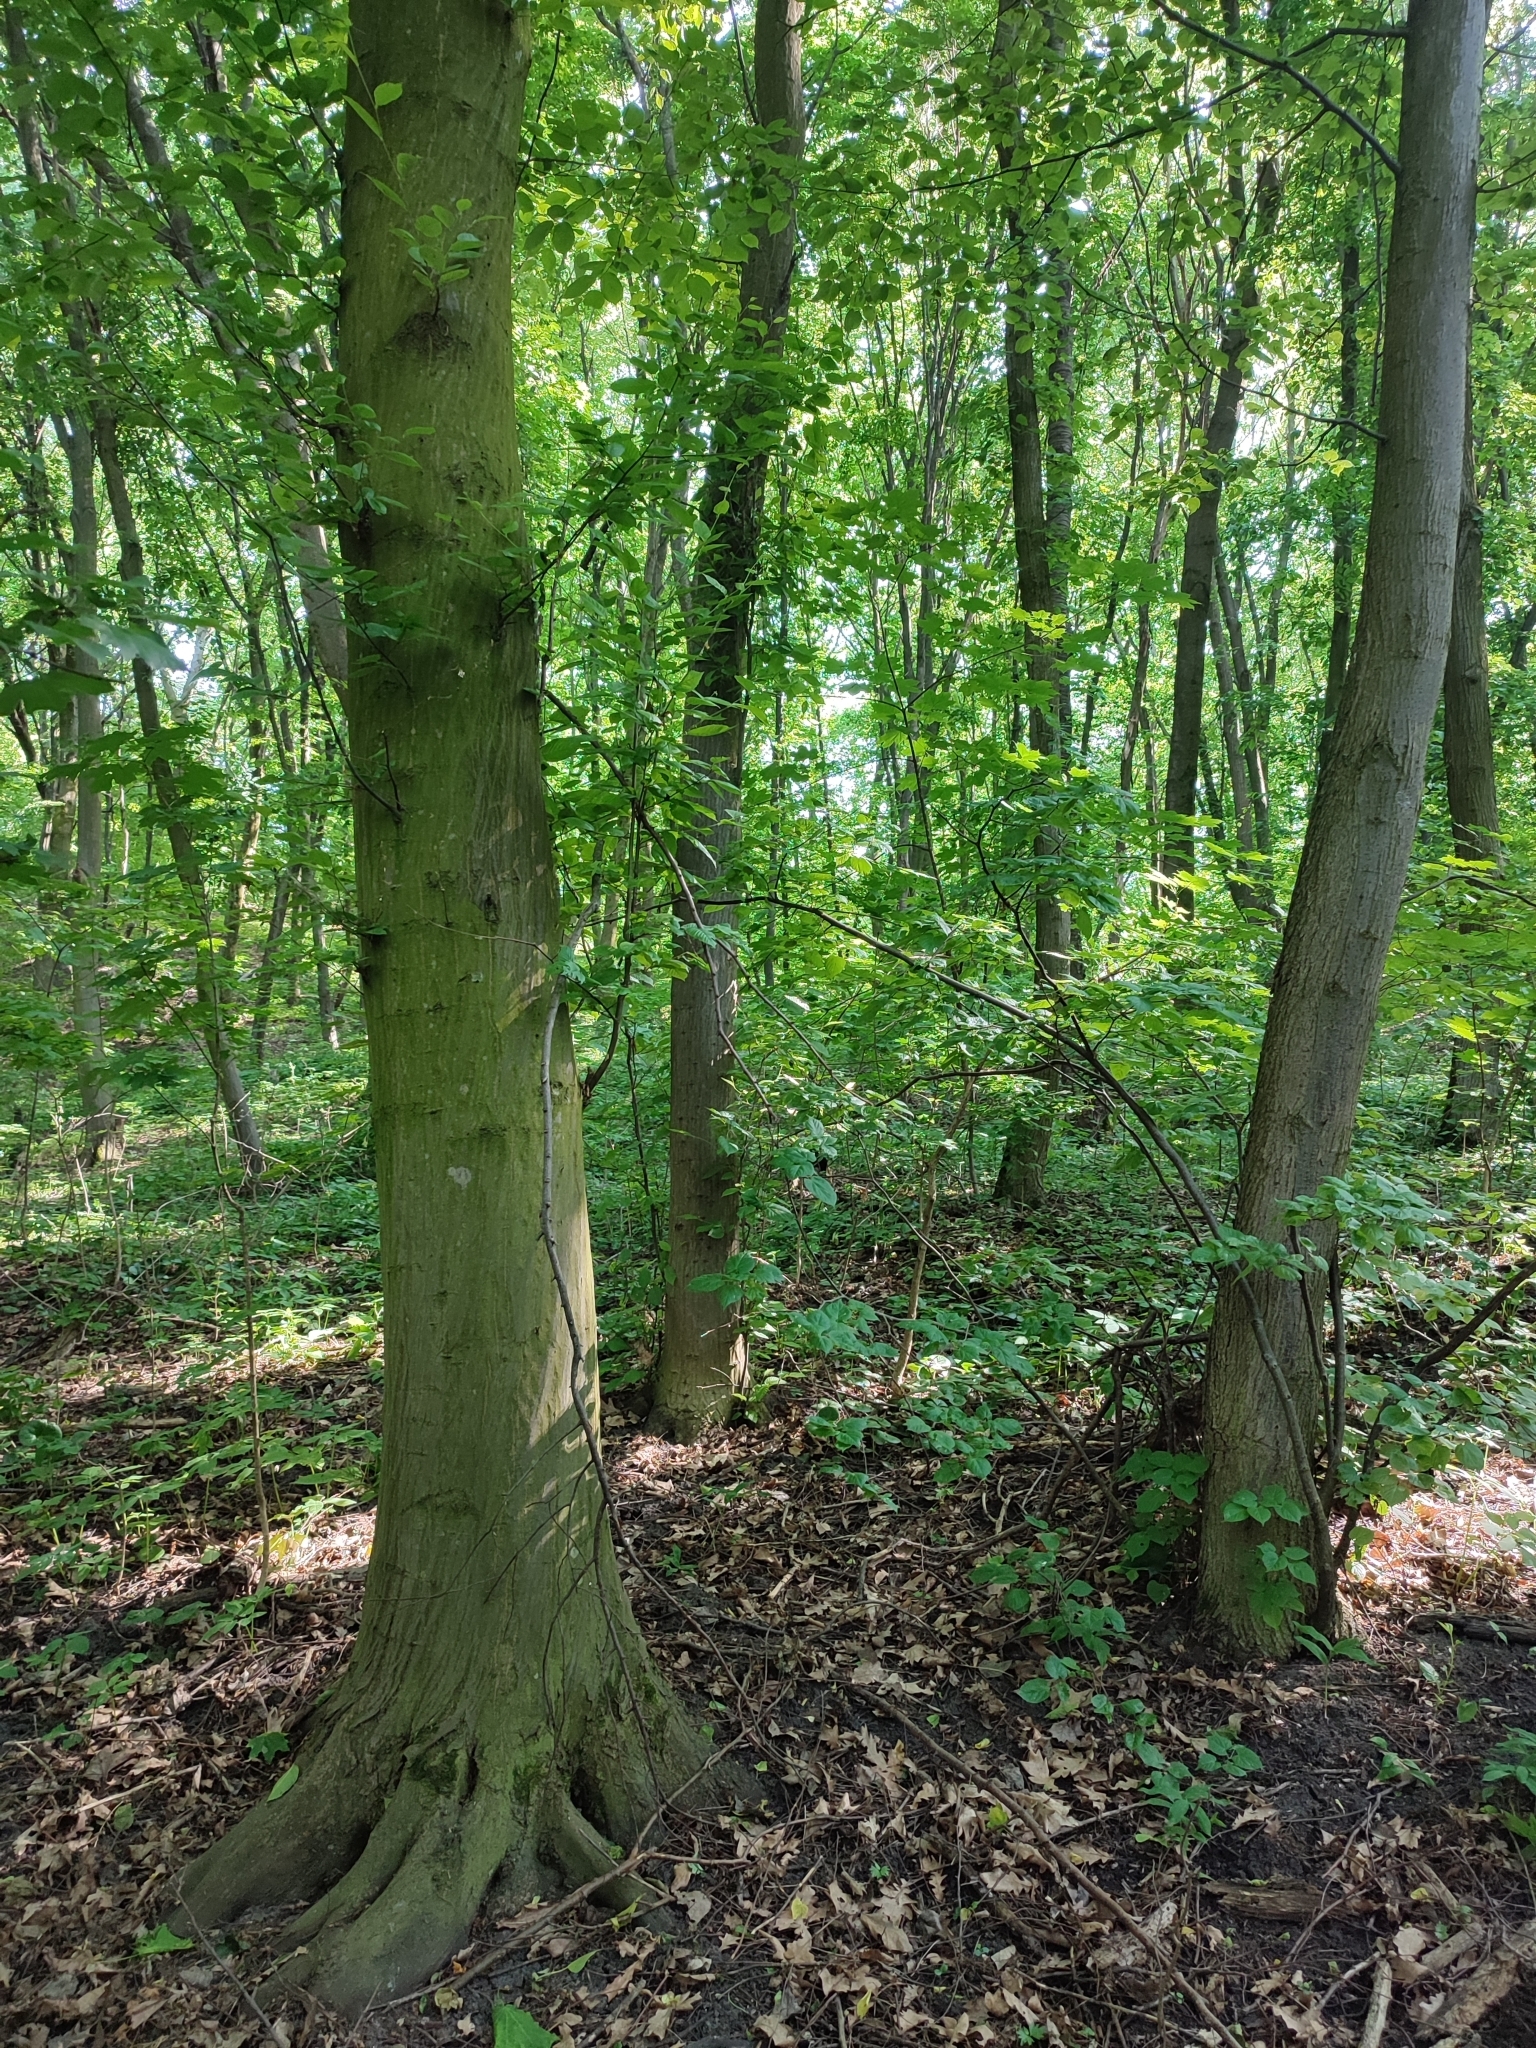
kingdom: Plantae
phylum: Tracheophyta
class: Magnoliopsida
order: Fagales
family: Betulaceae
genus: Carpinus
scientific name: Carpinus betulus
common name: Hornbeam
